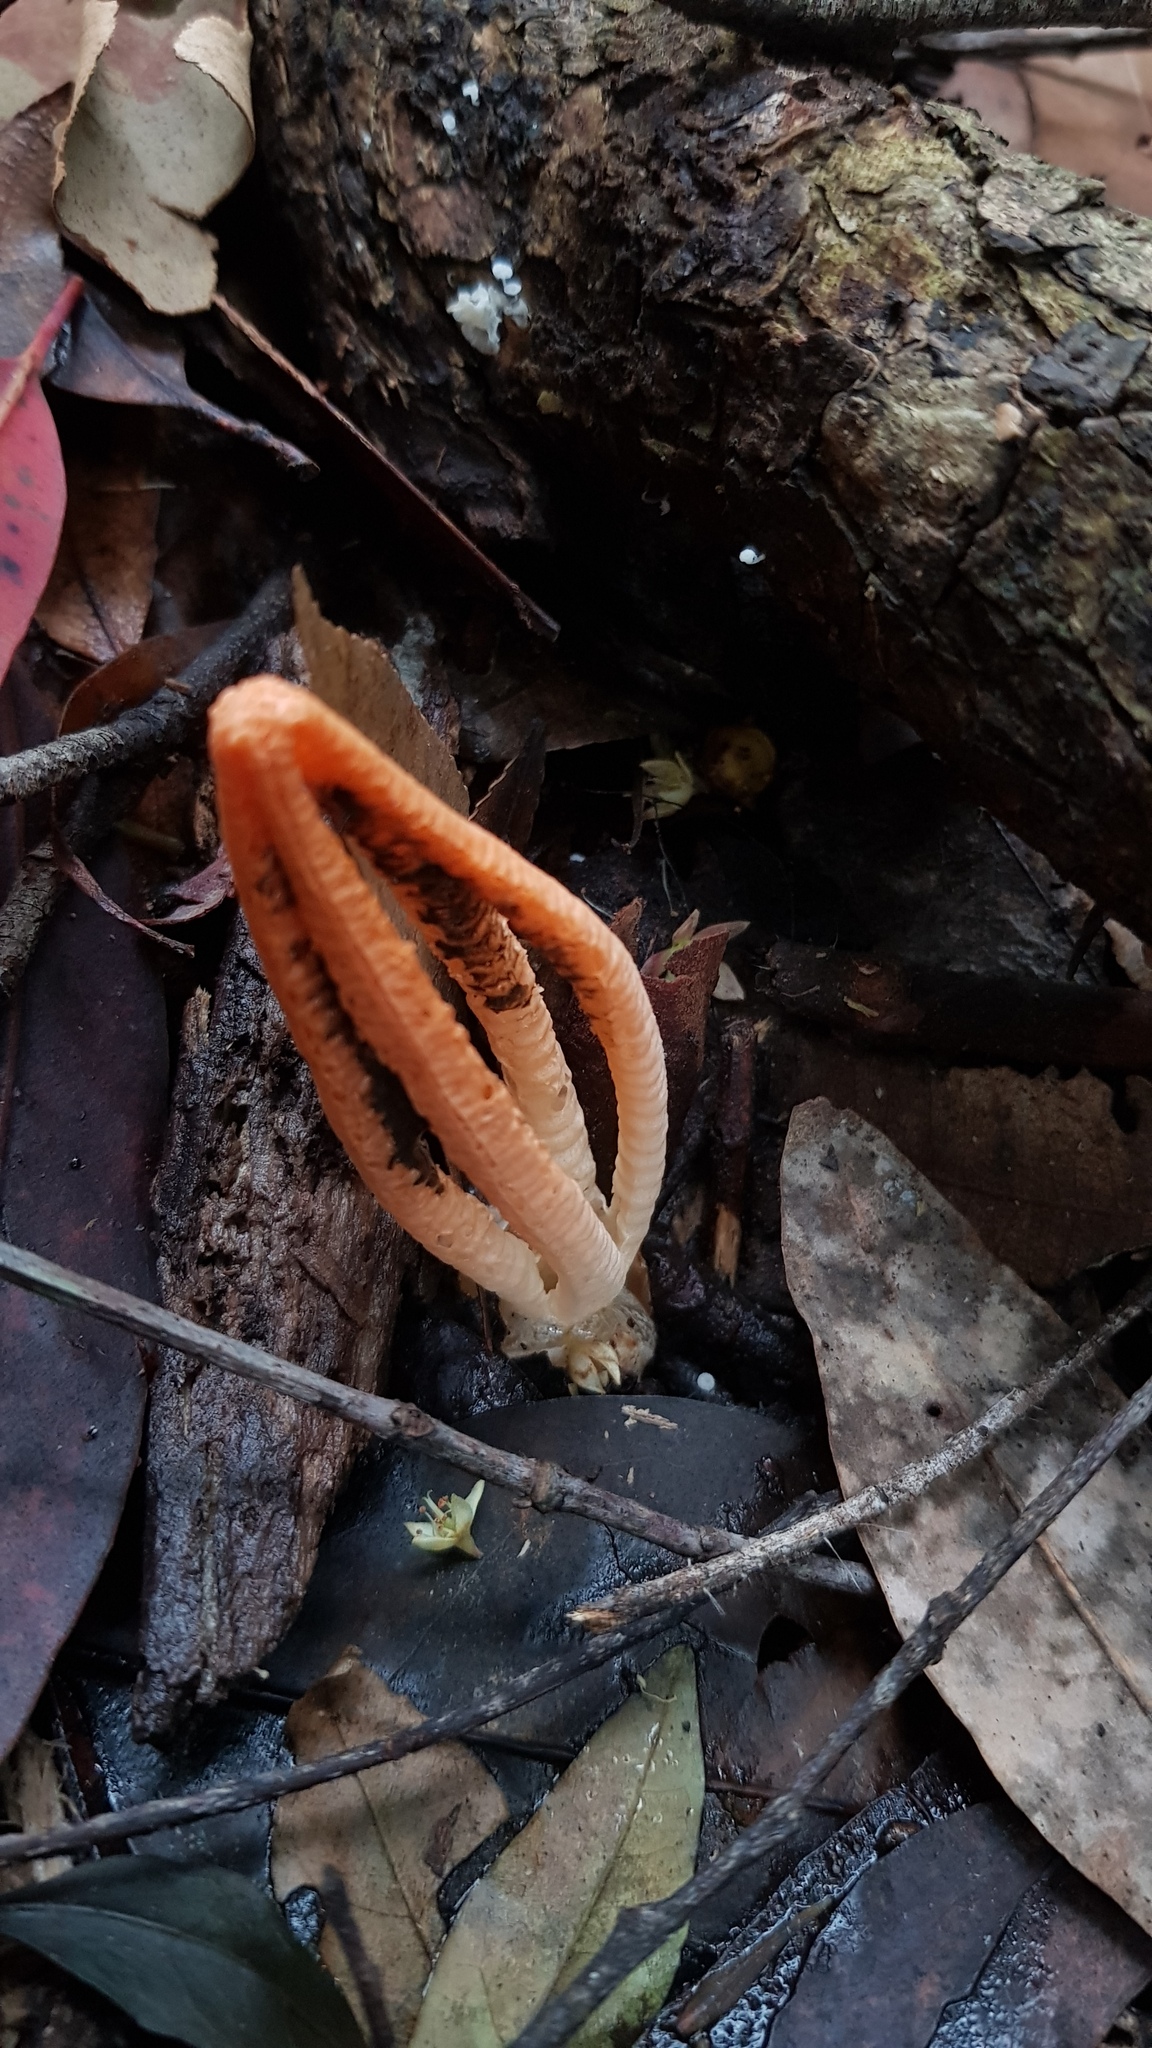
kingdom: Fungi
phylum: Basidiomycota
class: Agaricomycetes
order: Phallales
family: Phallaceae
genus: Pseudocolus
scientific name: Pseudocolus fusiformis
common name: Stinky squid
